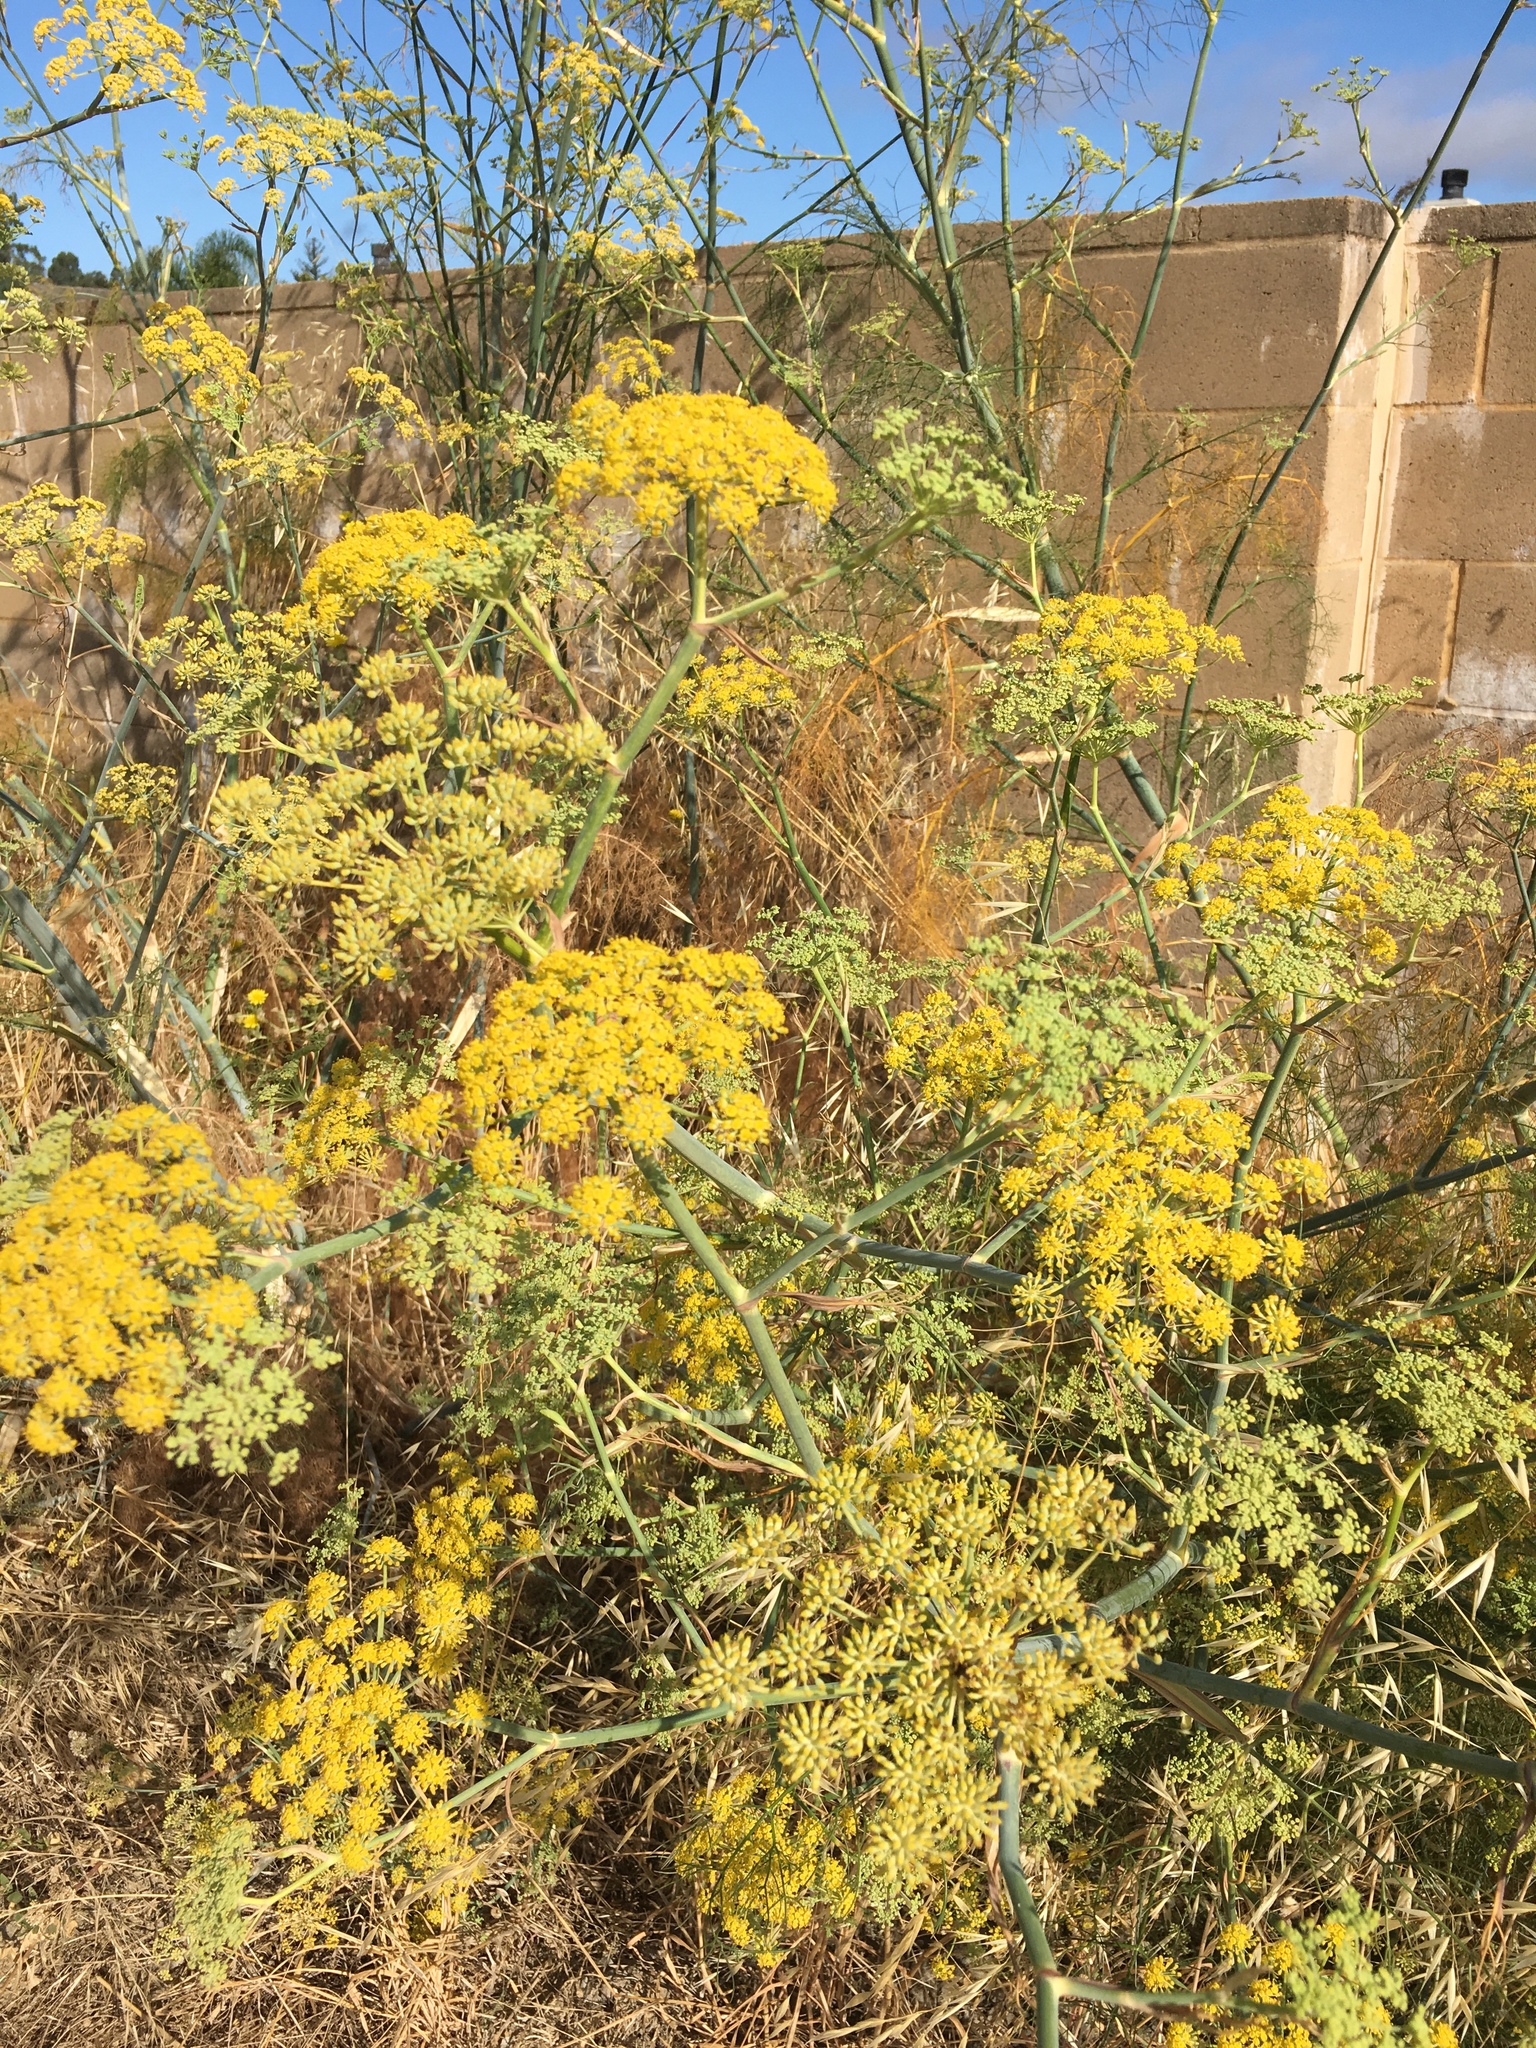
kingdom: Plantae
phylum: Tracheophyta
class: Magnoliopsida
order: Apiales
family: Apiaceae
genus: Foeniculum
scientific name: Foeniculum vulgare
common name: Fennel
